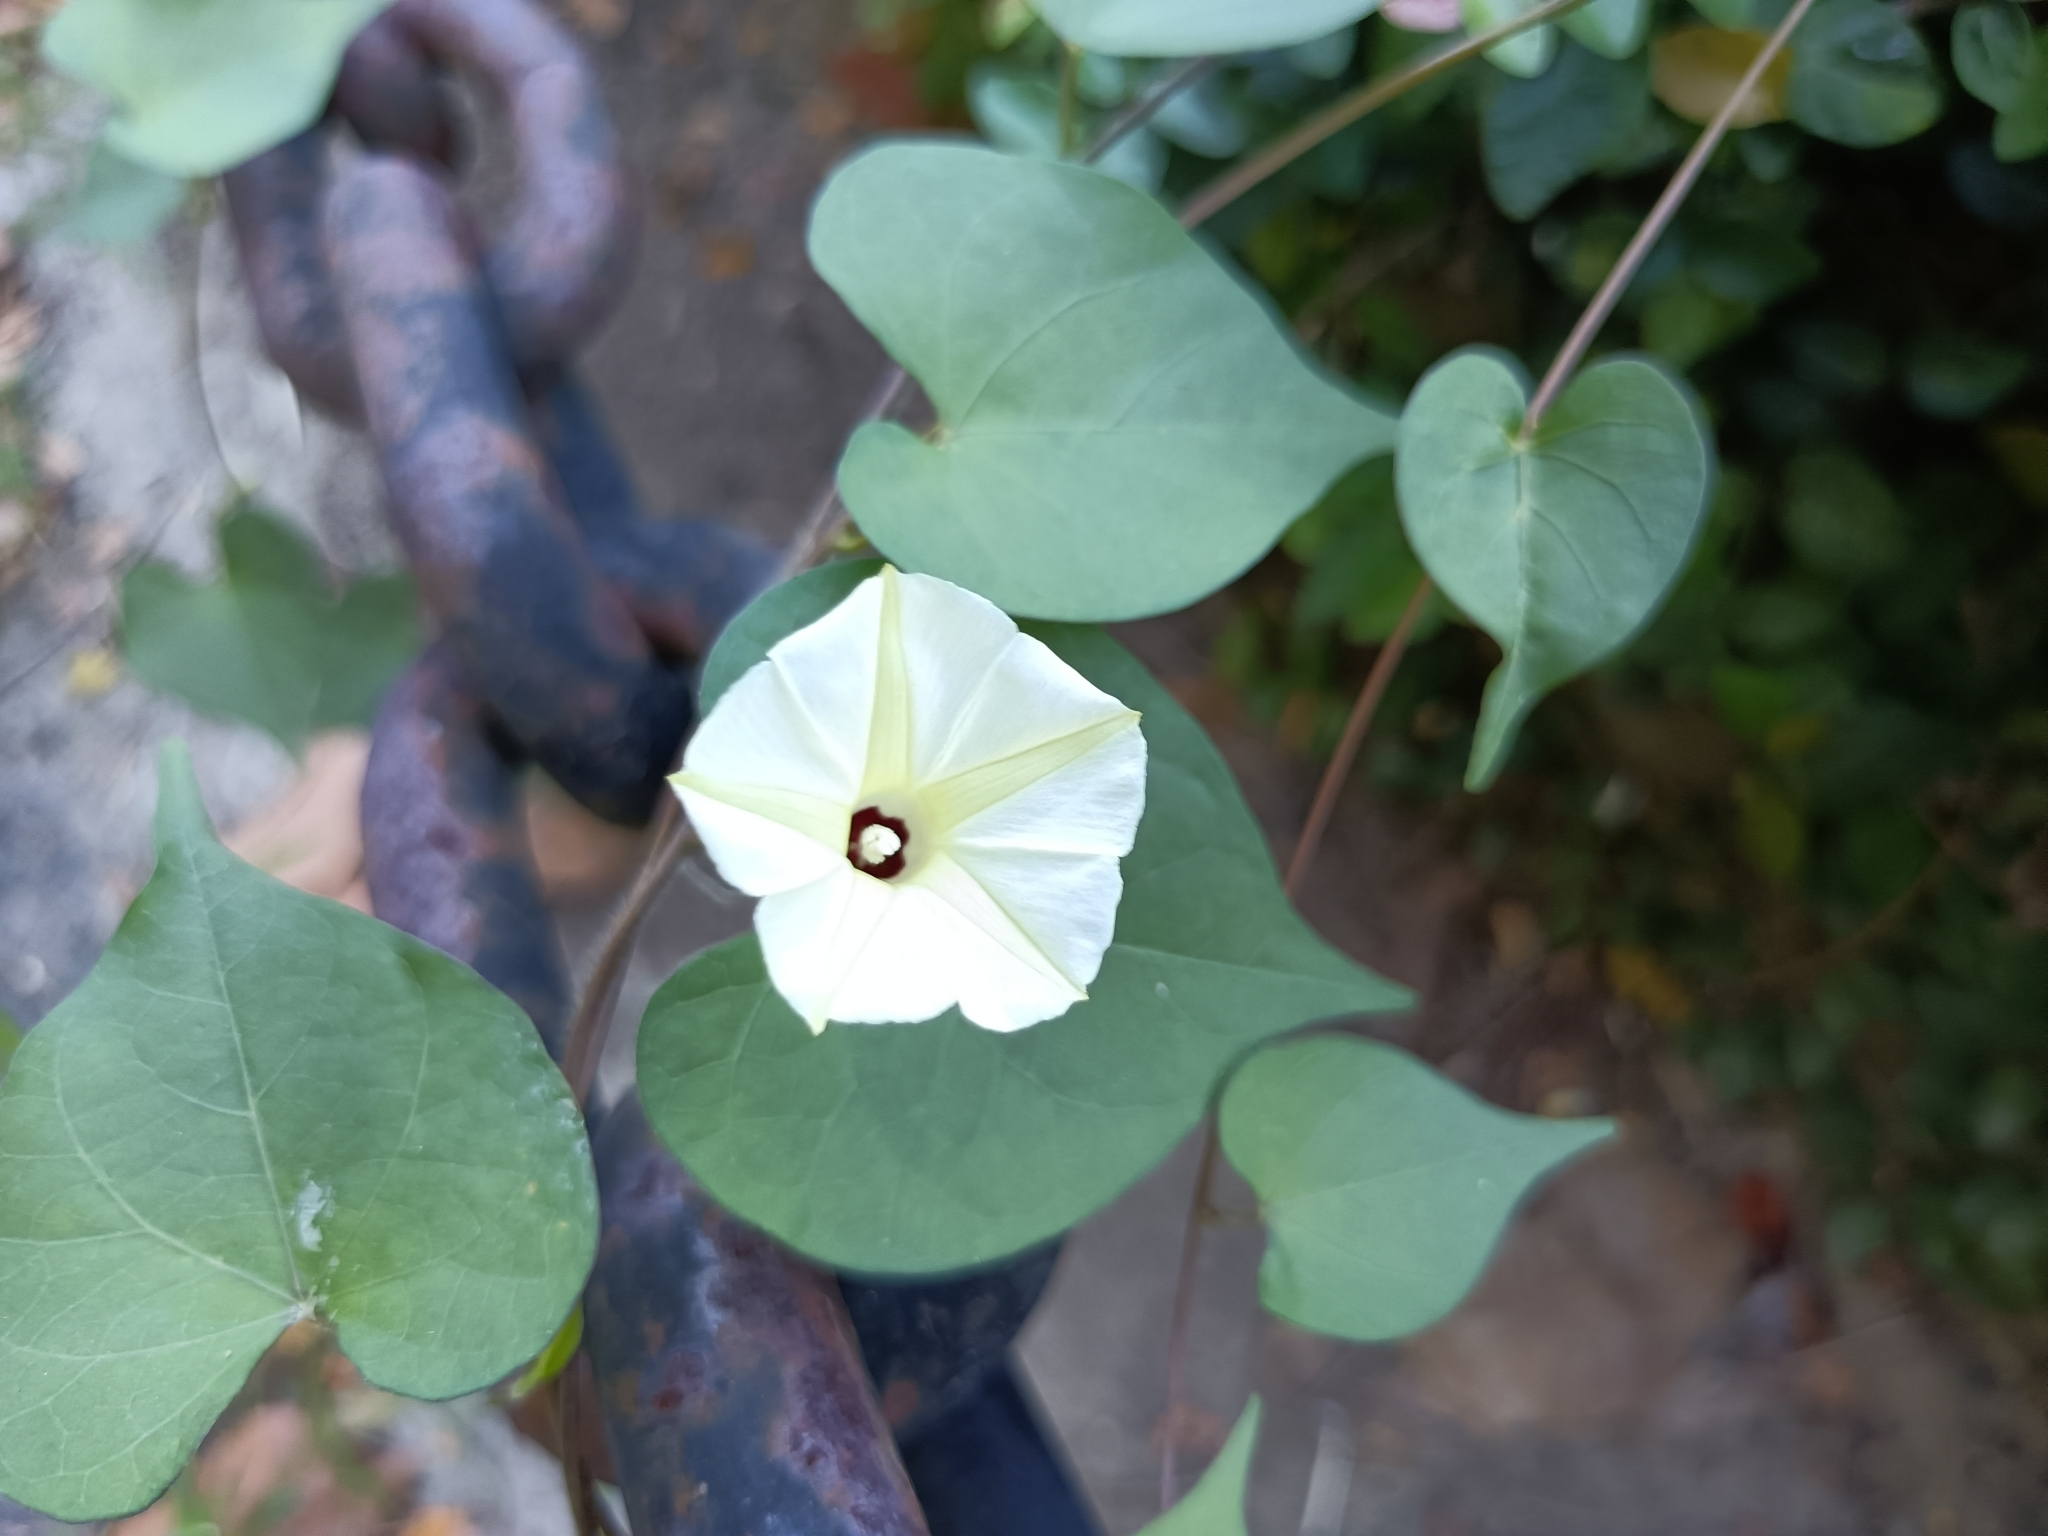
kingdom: Plantae
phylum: Tracheophyta
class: Magnoliopsida
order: Solanales
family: Convolvulaceae
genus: Ipomoea
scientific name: Ipomoea obscura
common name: Obscure morning-glory
